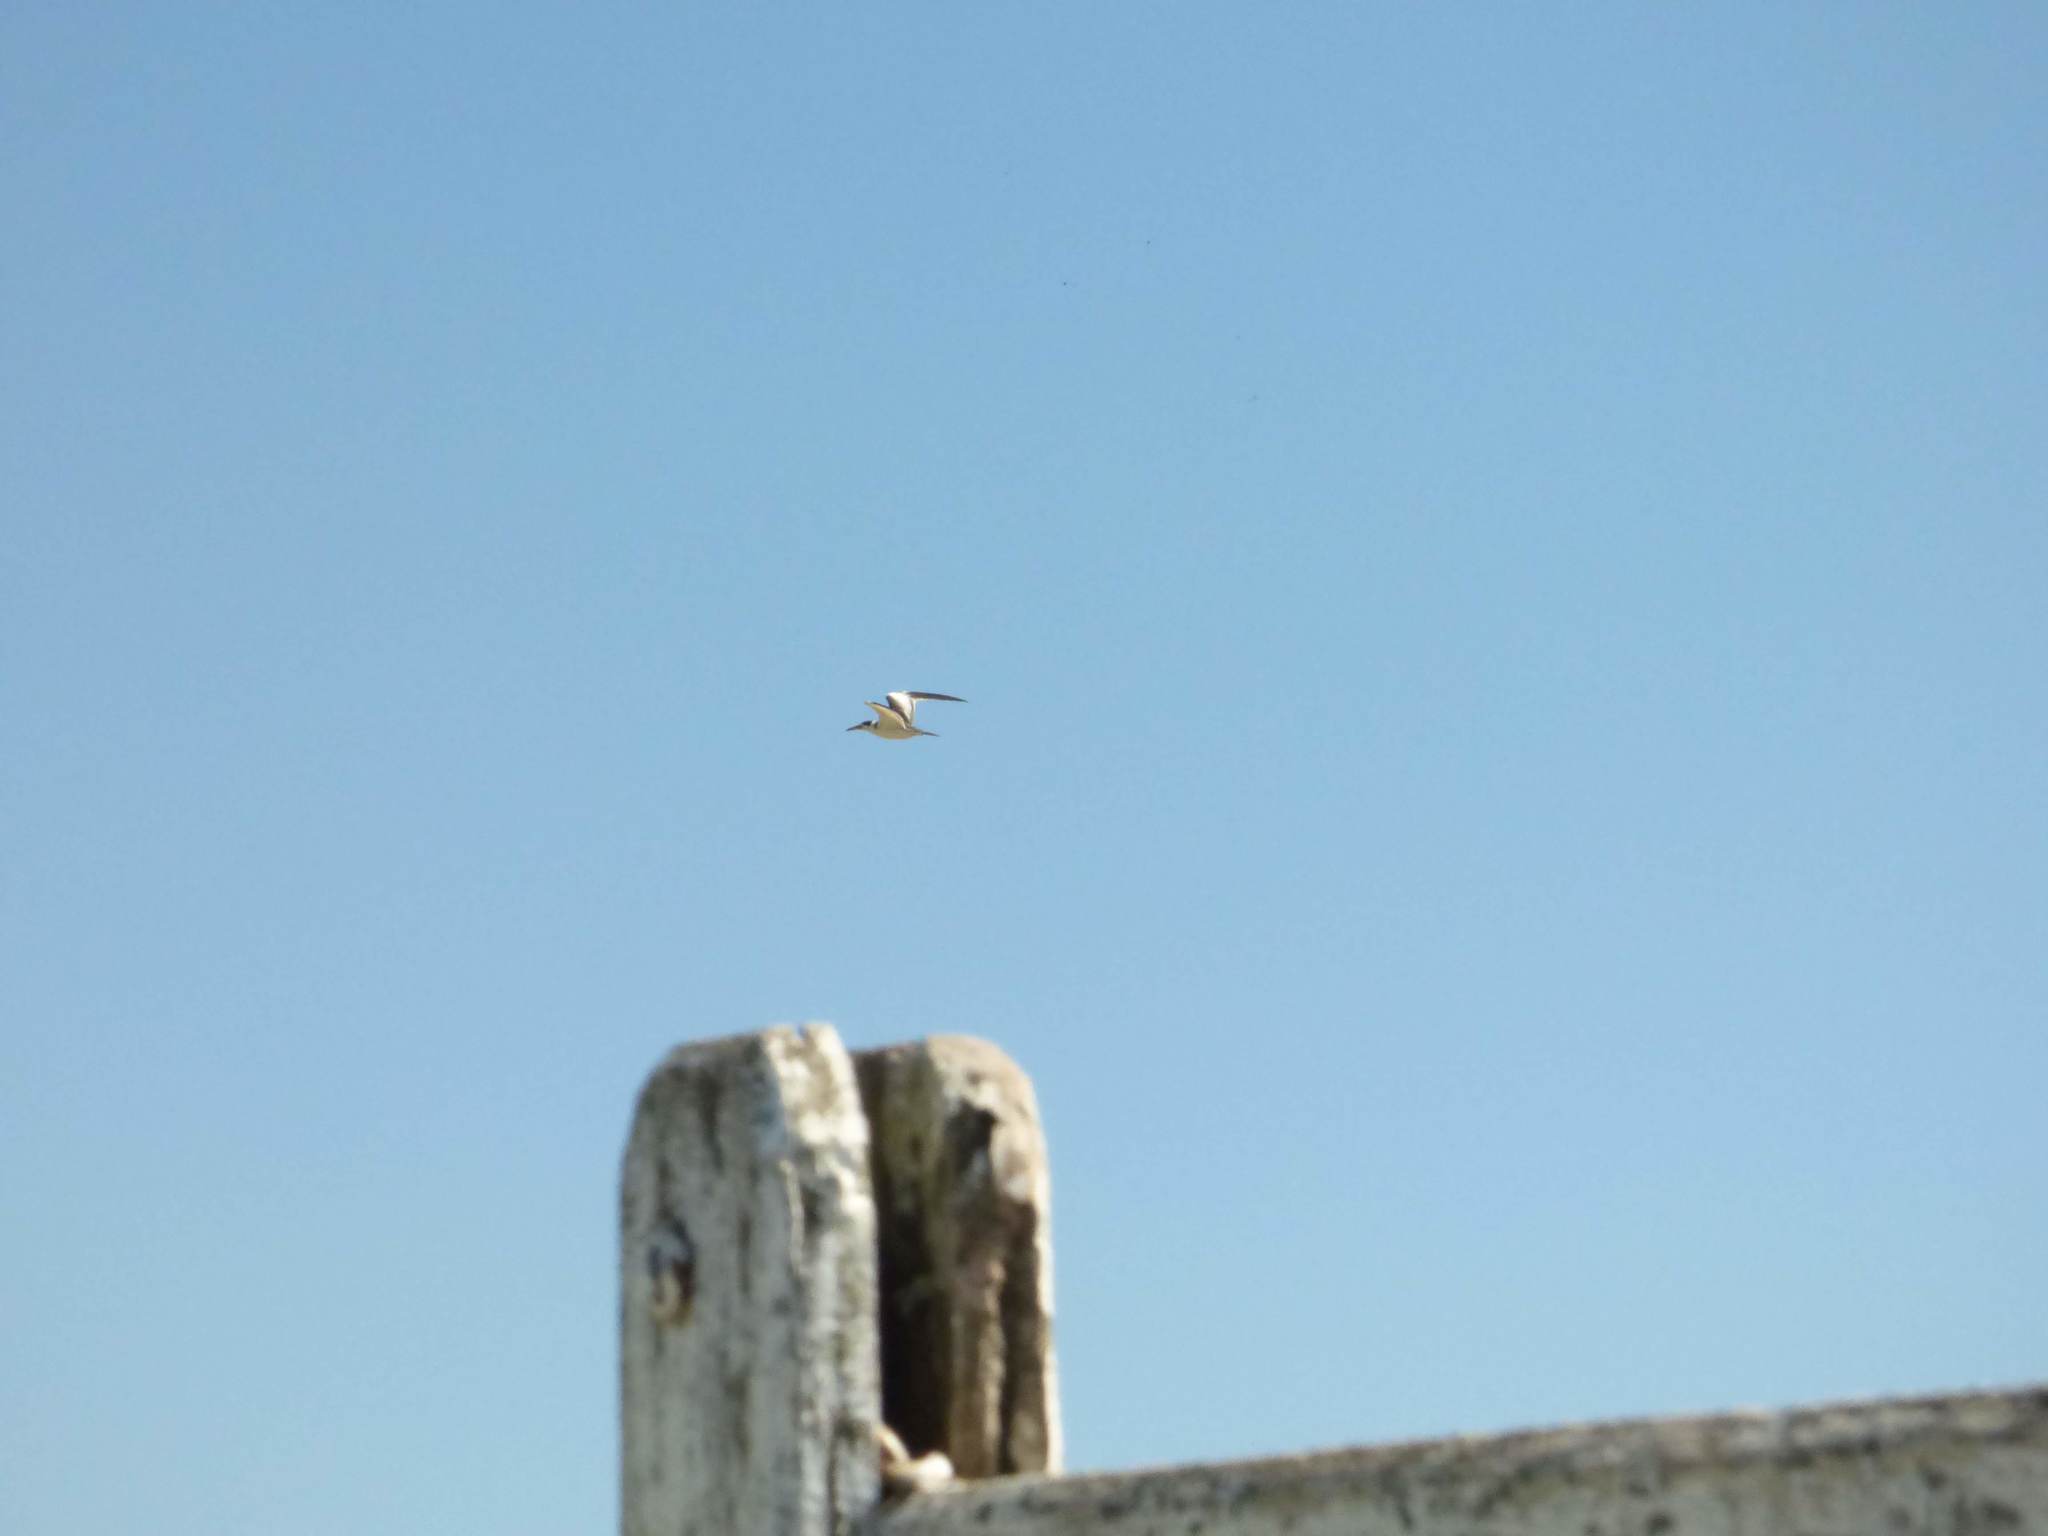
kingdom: Animalia
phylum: Chordata
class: Aves
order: Charadriiformes
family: Laridae
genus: Phaetusa
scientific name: Phaetusa simplex
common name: Large-billed tern
